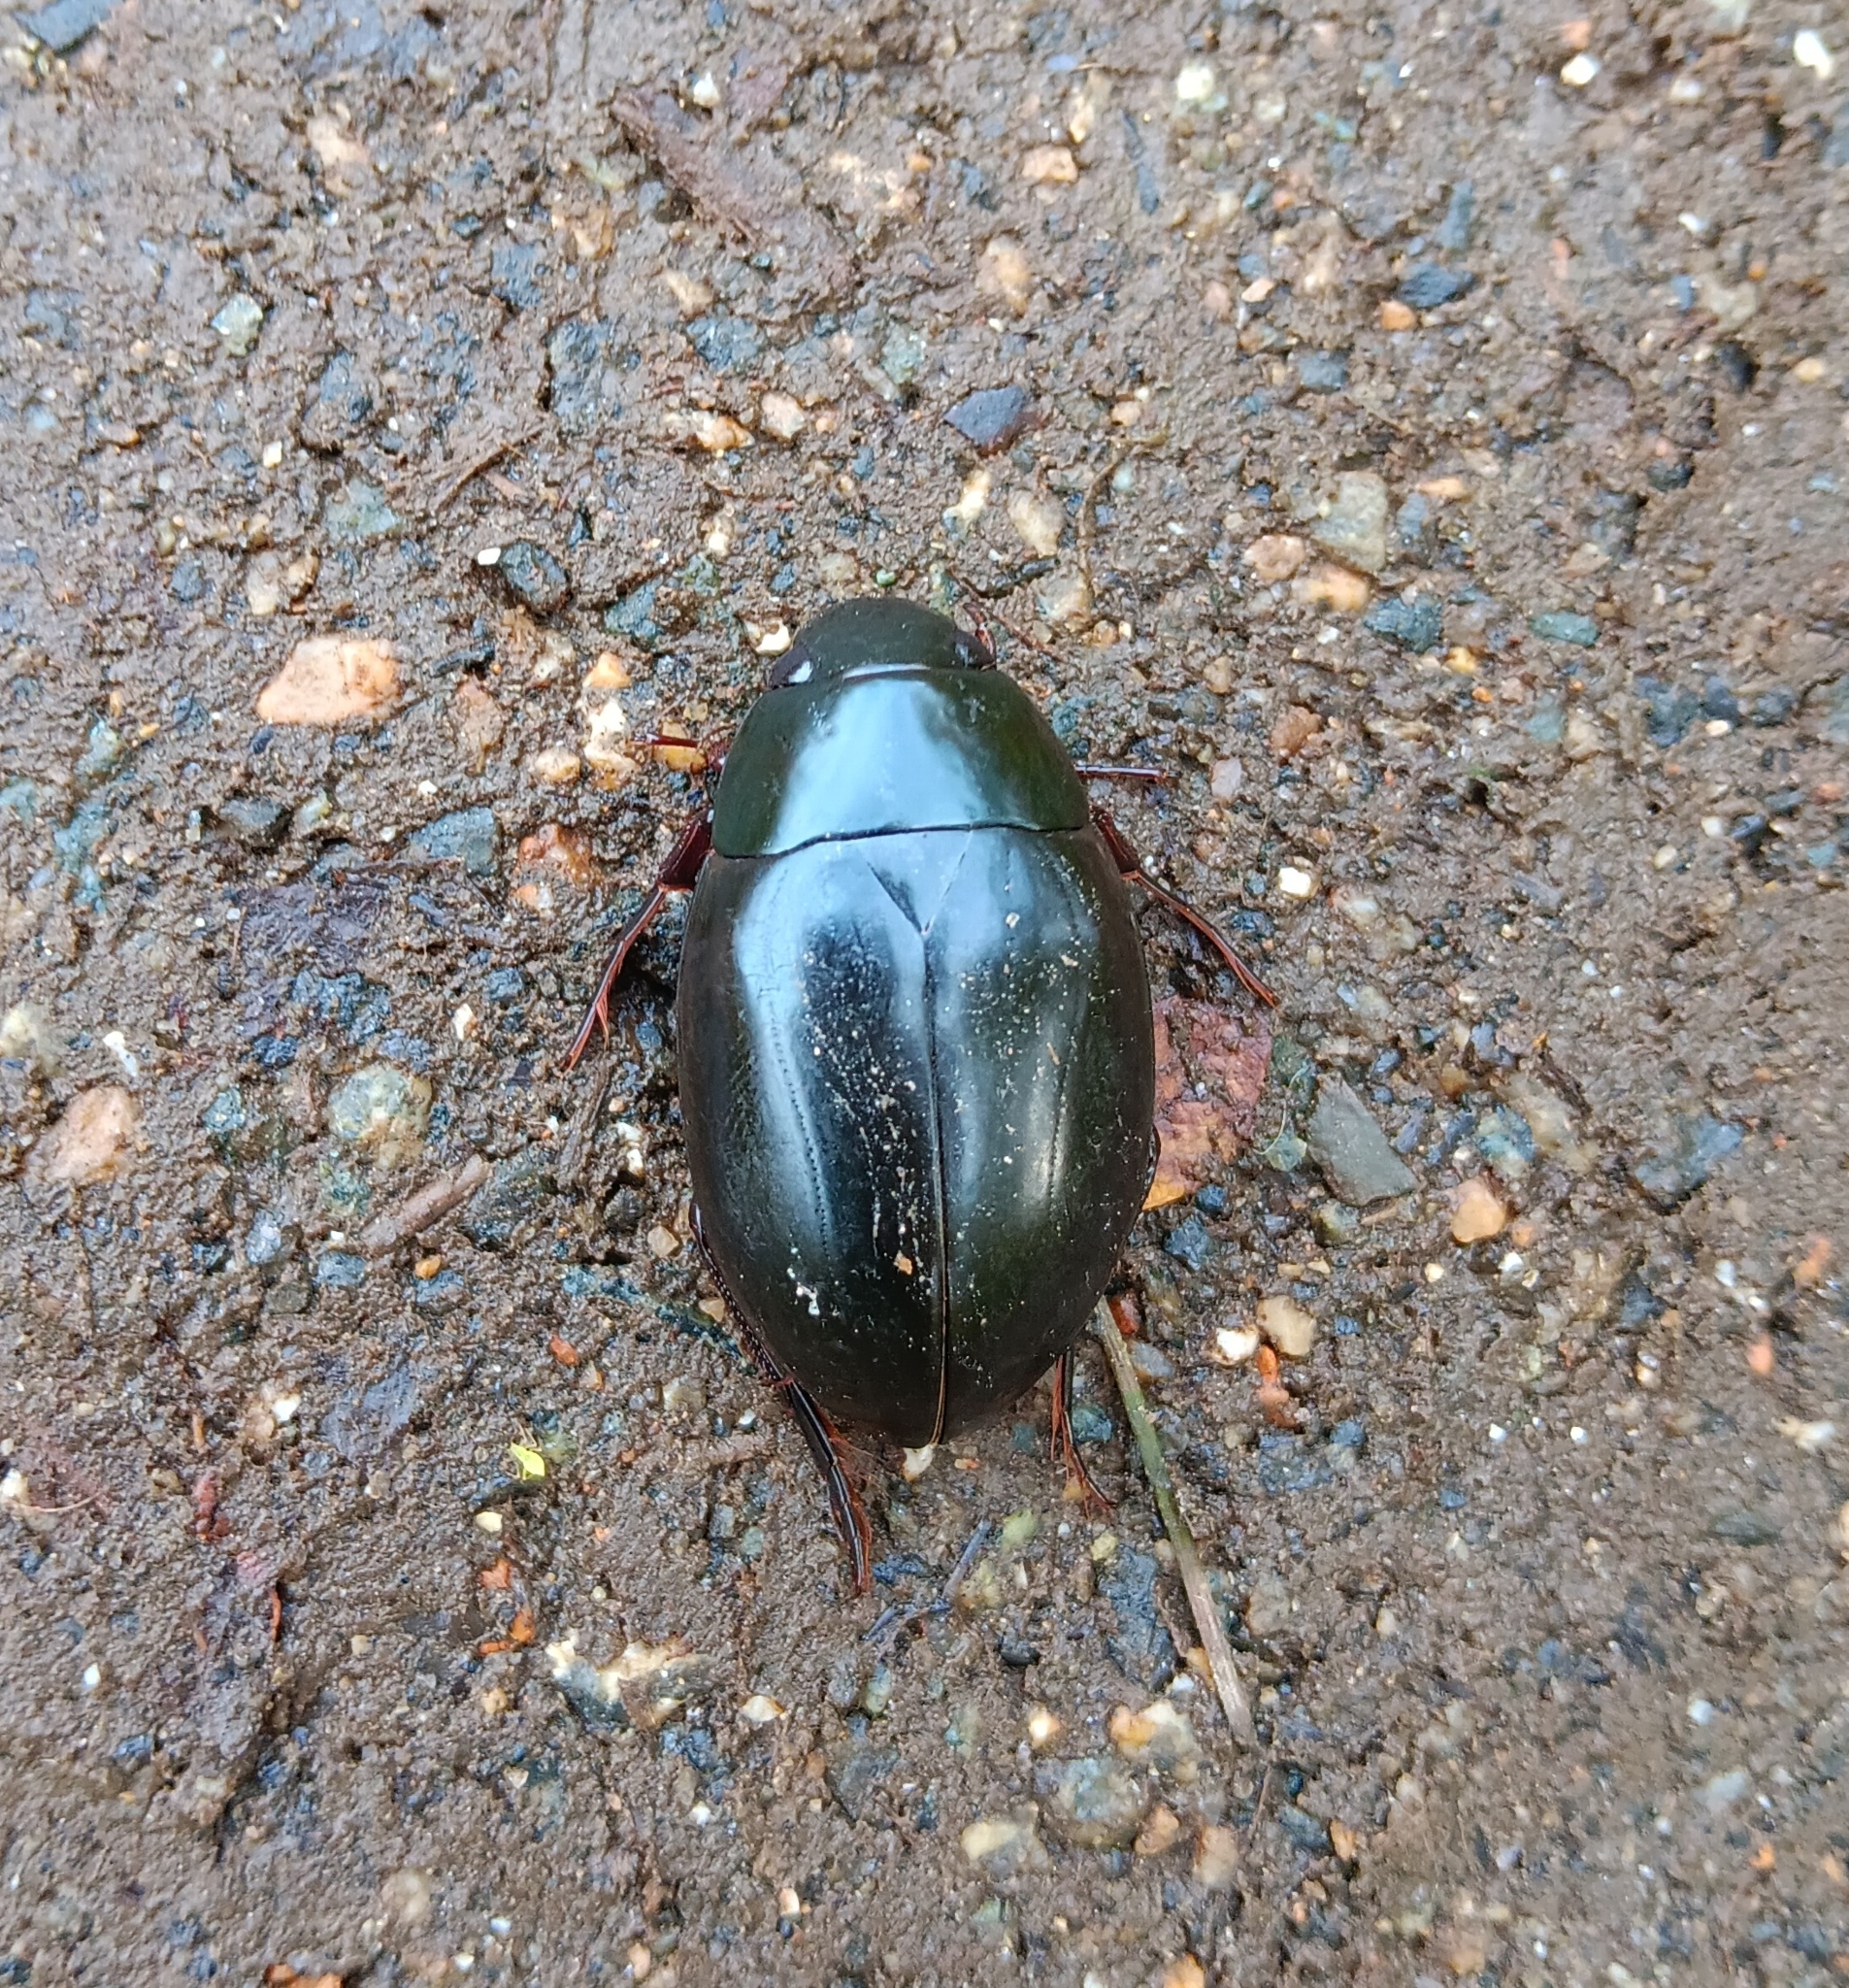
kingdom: Animalia
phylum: Arthropoda
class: Insecta
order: Coleoptera
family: Hydrophilidae
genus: Hydrophilus
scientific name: Hydrophilus ovatus
